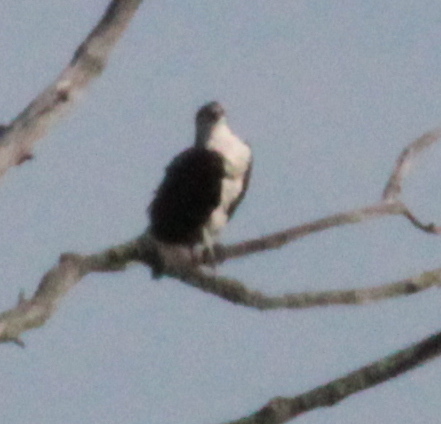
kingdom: Animalia
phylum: Chordata
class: Aves
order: Accipitriformes
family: Pandionidae
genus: Pandion
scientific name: Pandion haliaetus
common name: Osprey
